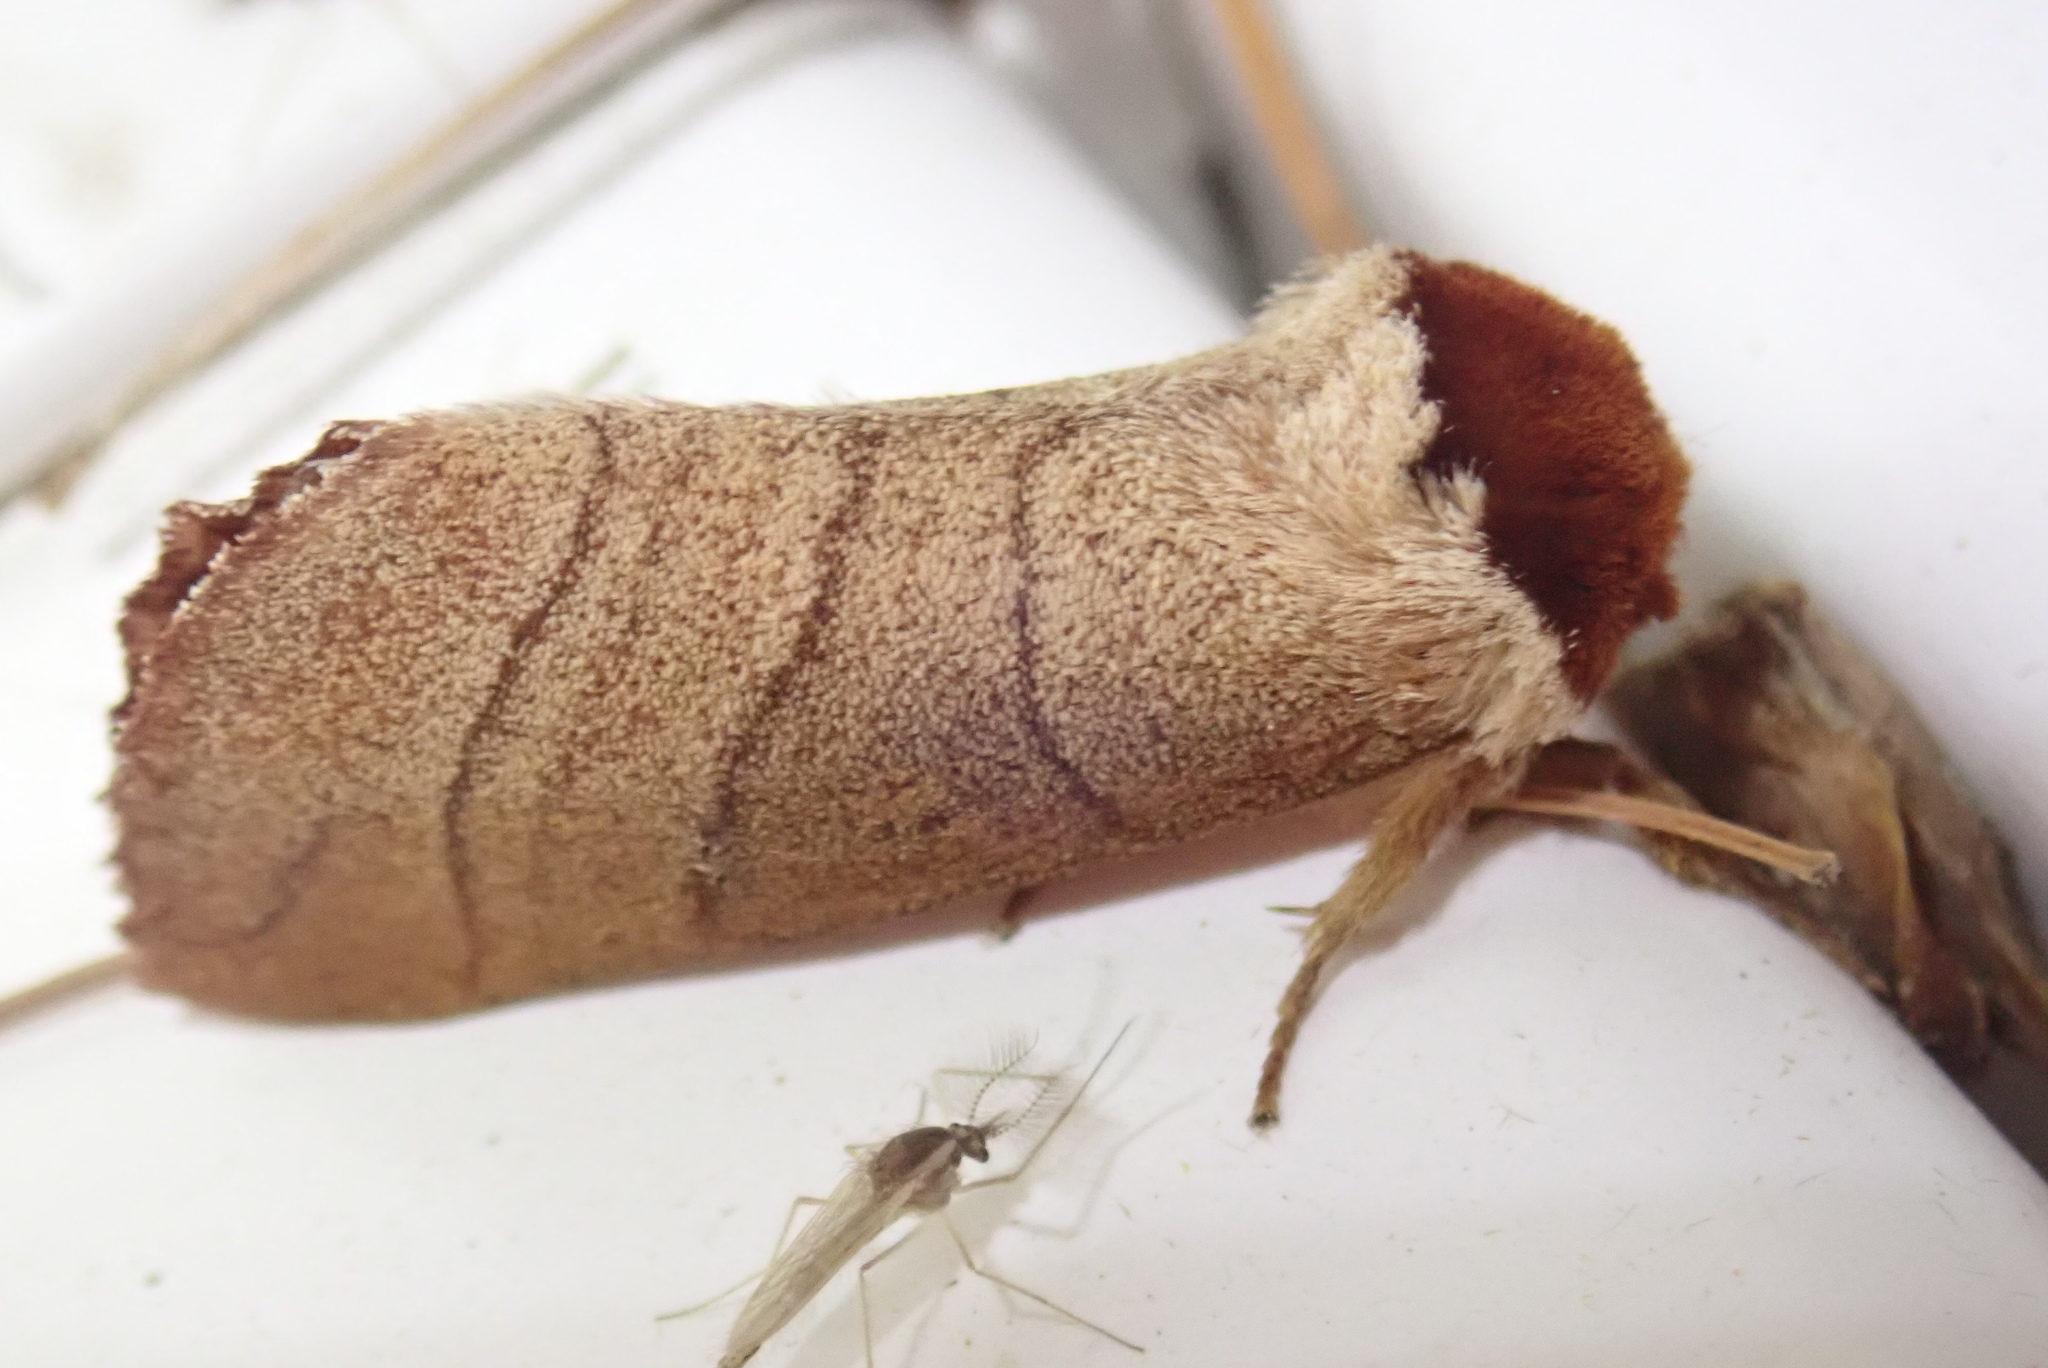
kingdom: Animalia
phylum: Arthropoda
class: Insecta
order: Lepidoptera
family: Notodontidae
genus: Datana
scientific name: Datana ministra
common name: Yellow-necked caterpillar moth
